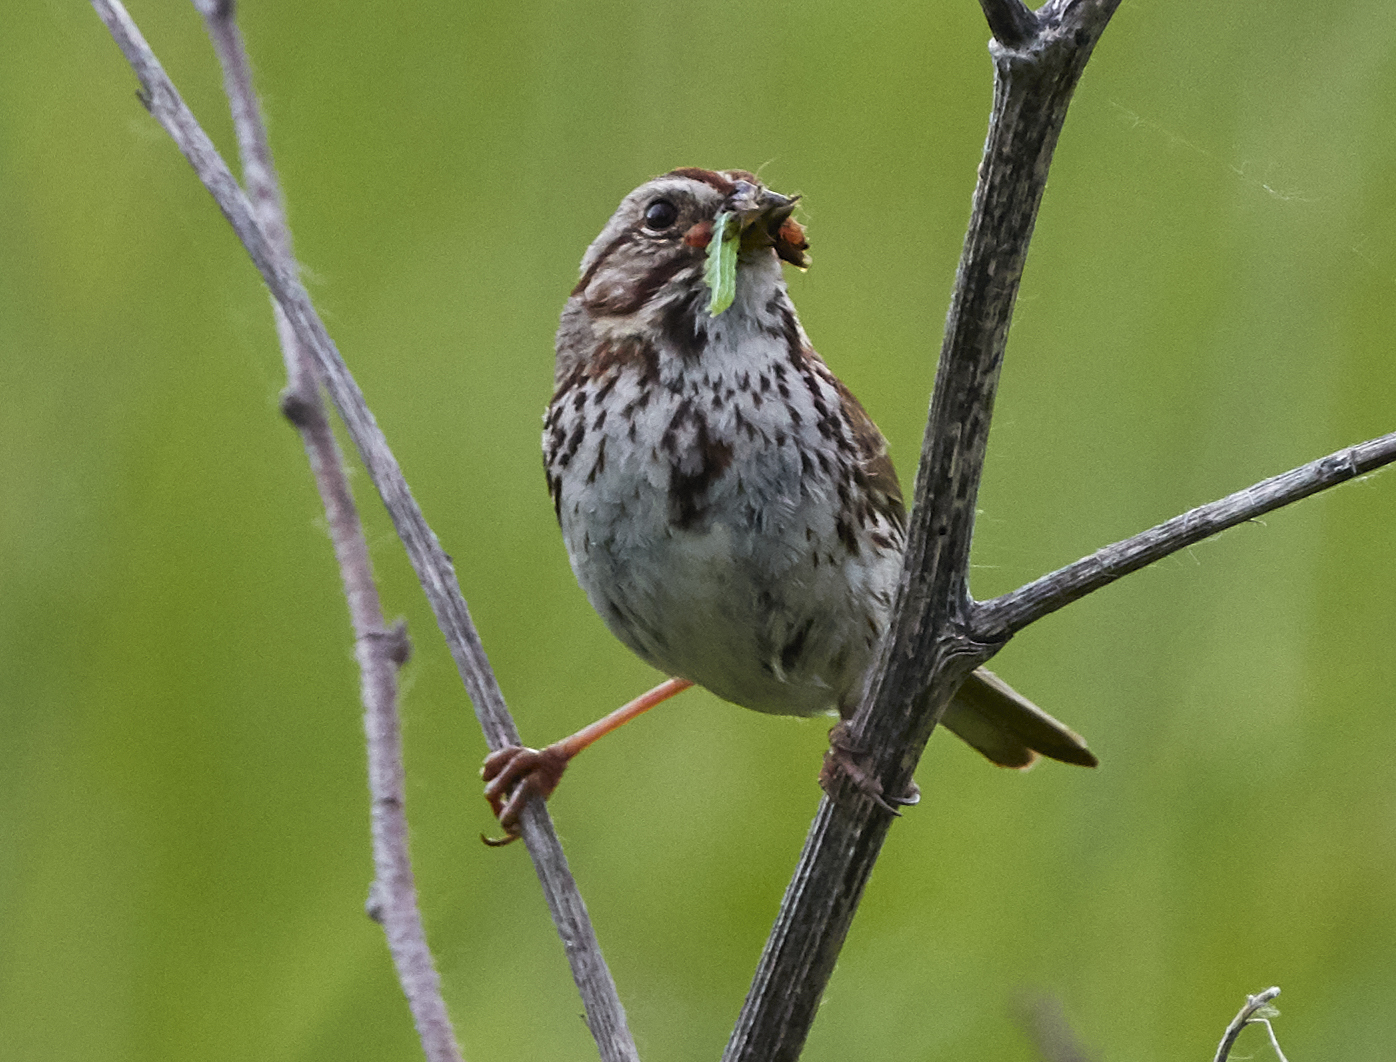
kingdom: Animalia
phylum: Chordata
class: Aves
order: Passeriformes
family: Passerellidae
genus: Melospiza
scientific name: Melospiza melodia
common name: Song sparrow
